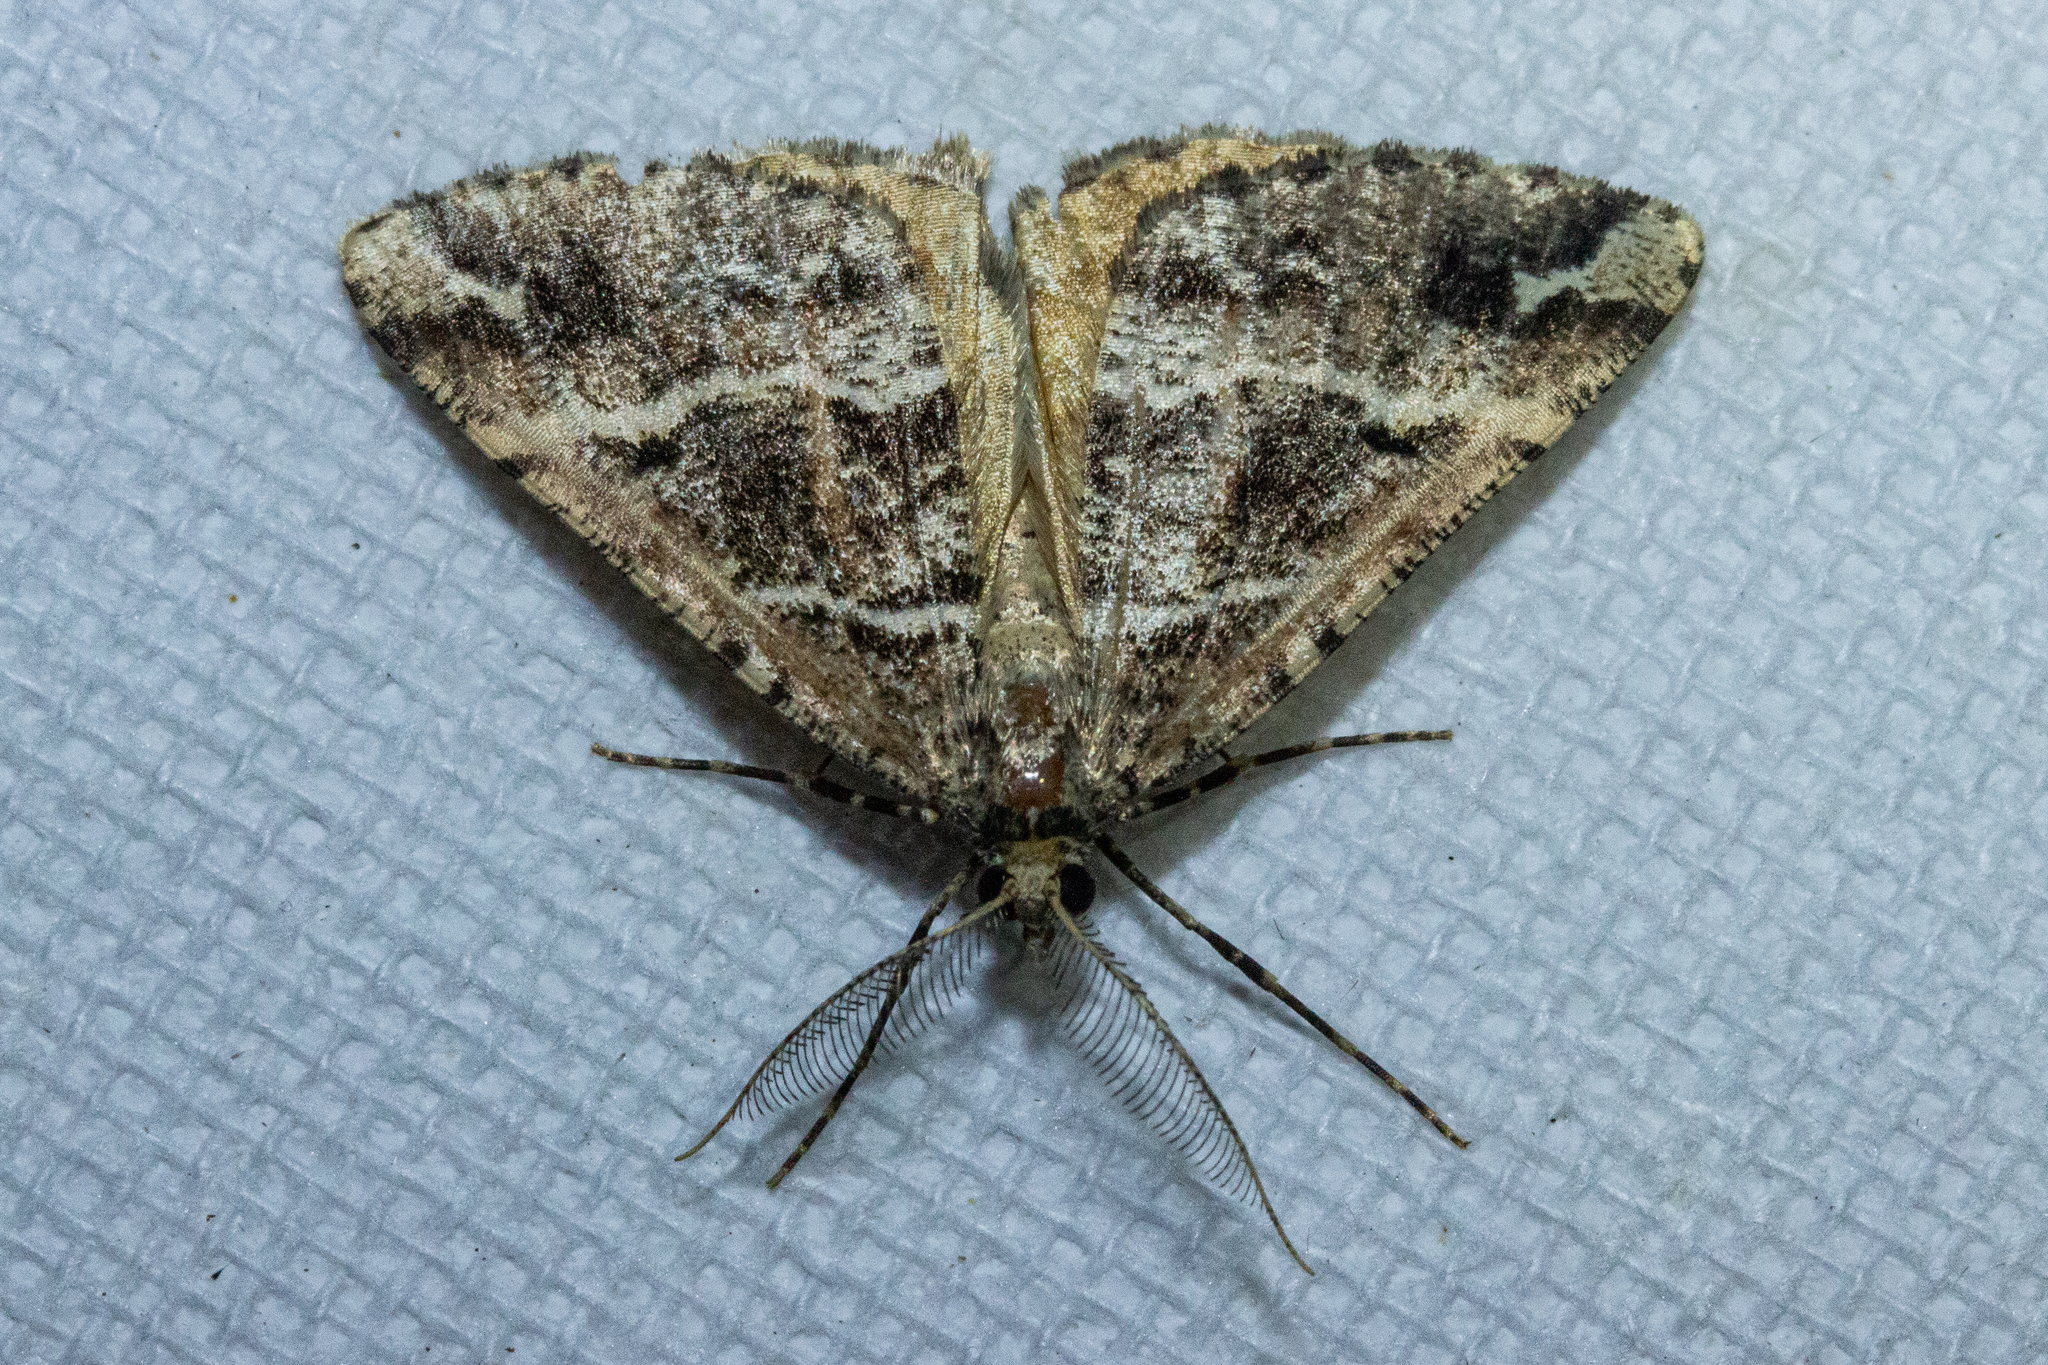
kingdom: Animalia
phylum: Arthropoda
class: Insecta
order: Lepidoptera
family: Geometridae
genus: Pseudocoremia
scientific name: Pseudocoremia melinata
